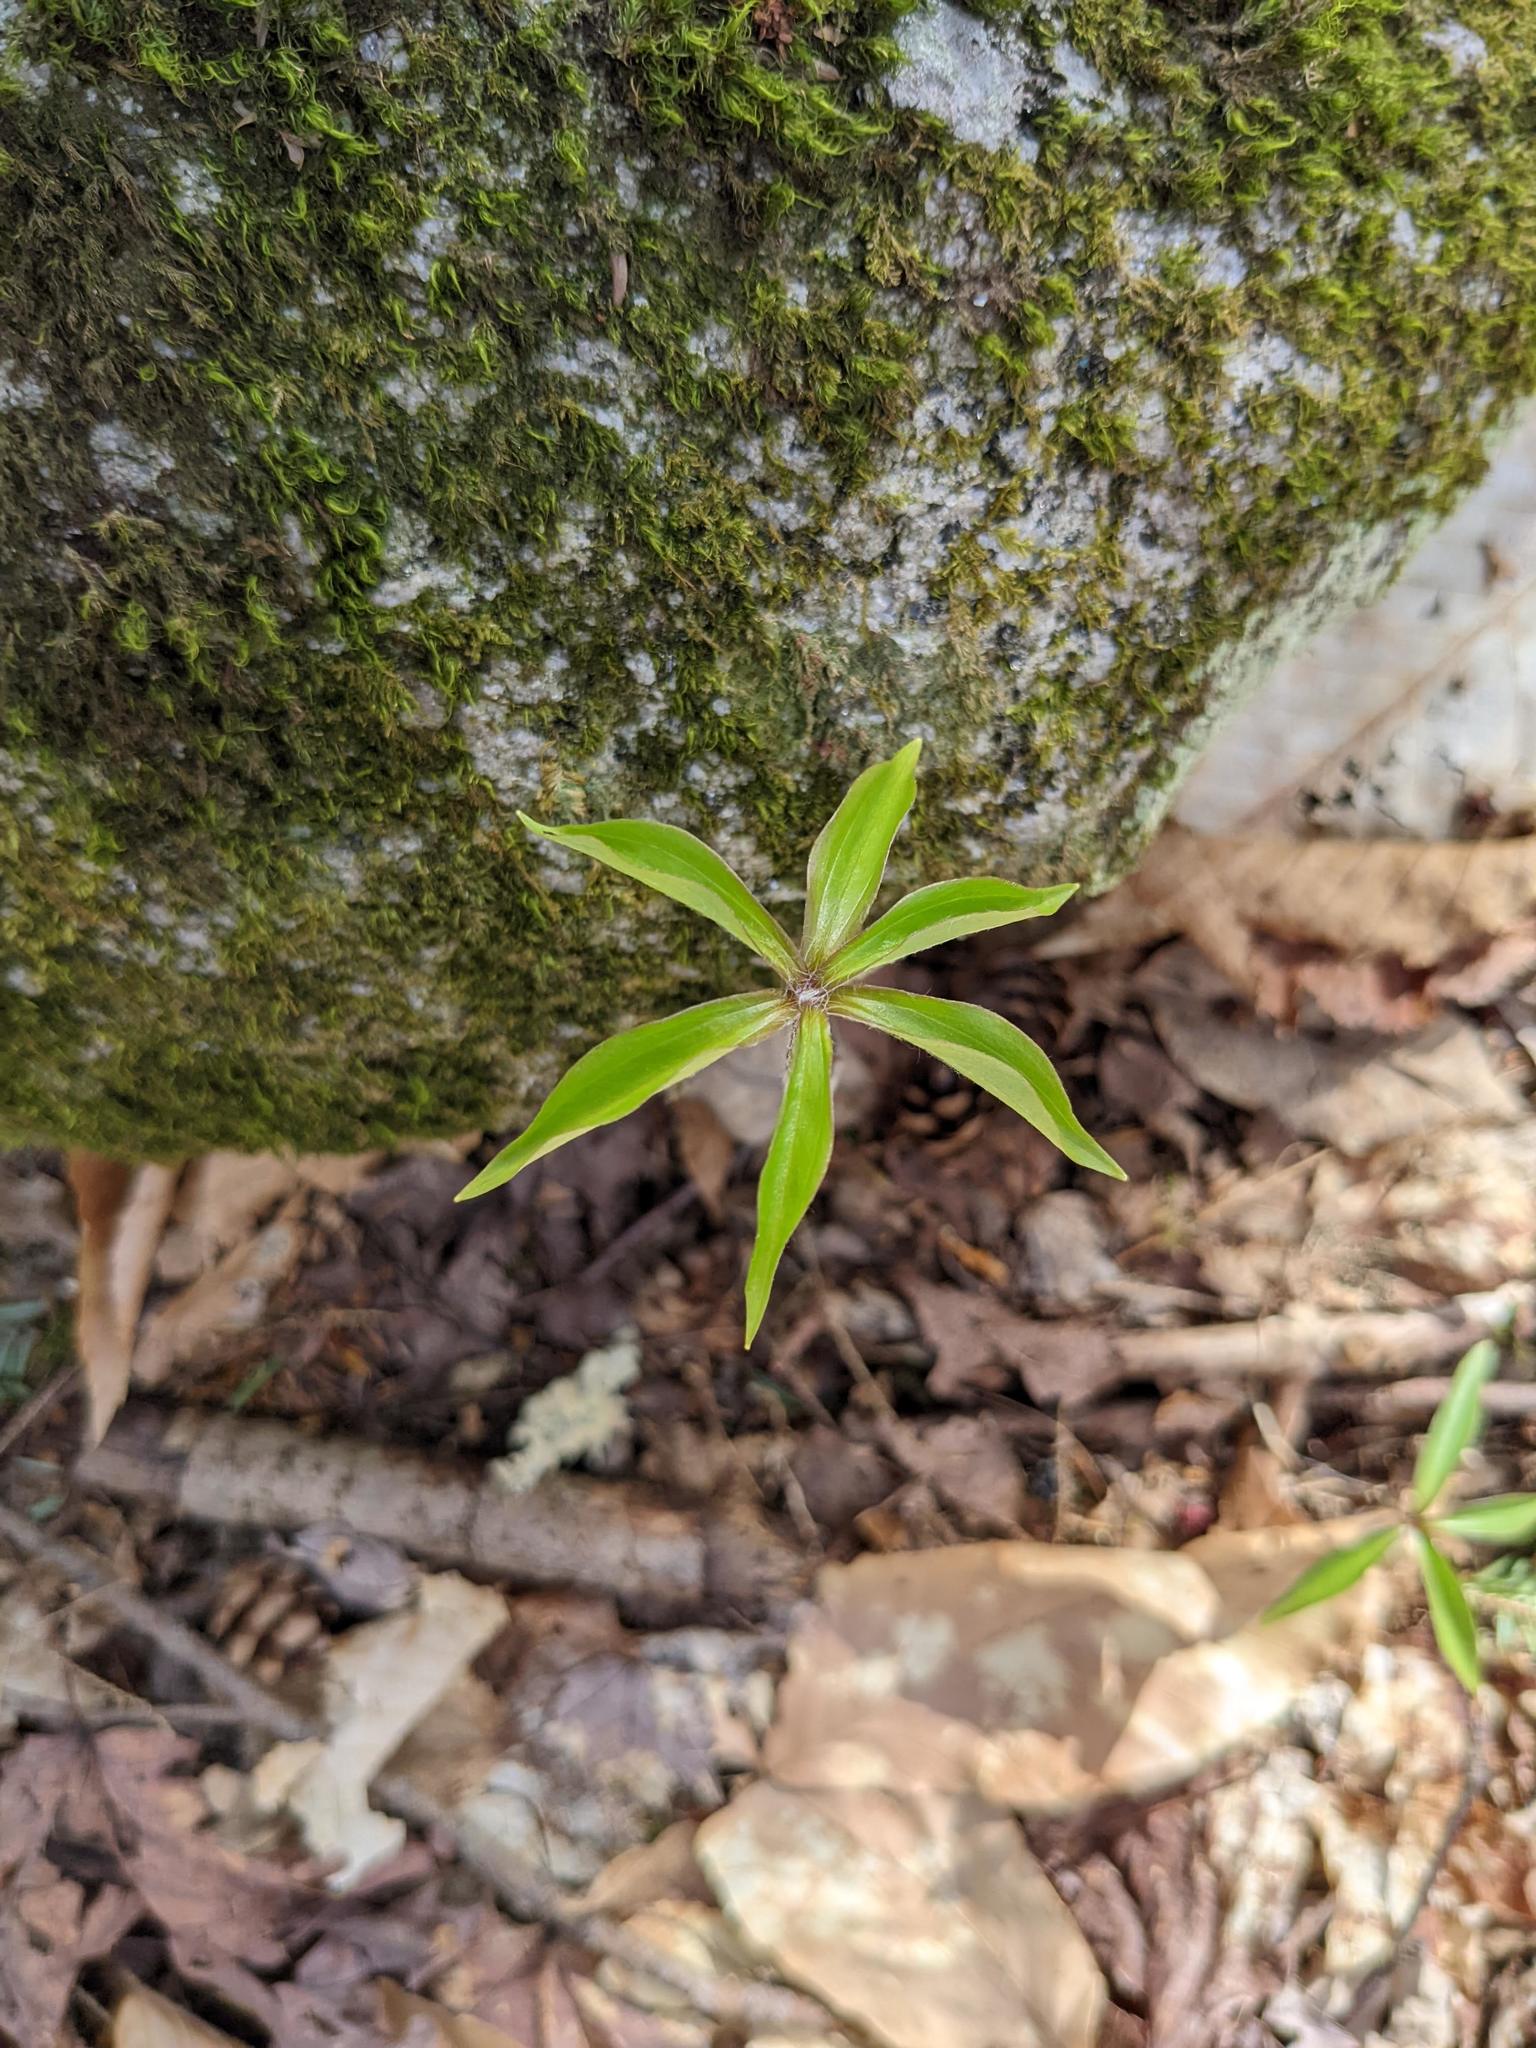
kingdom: Plantae
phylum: Tracheophyta
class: Liliopsida
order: Liliales
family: Liliaceae
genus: Medeola
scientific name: Medeola virginiana
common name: Indian cucumber-root
